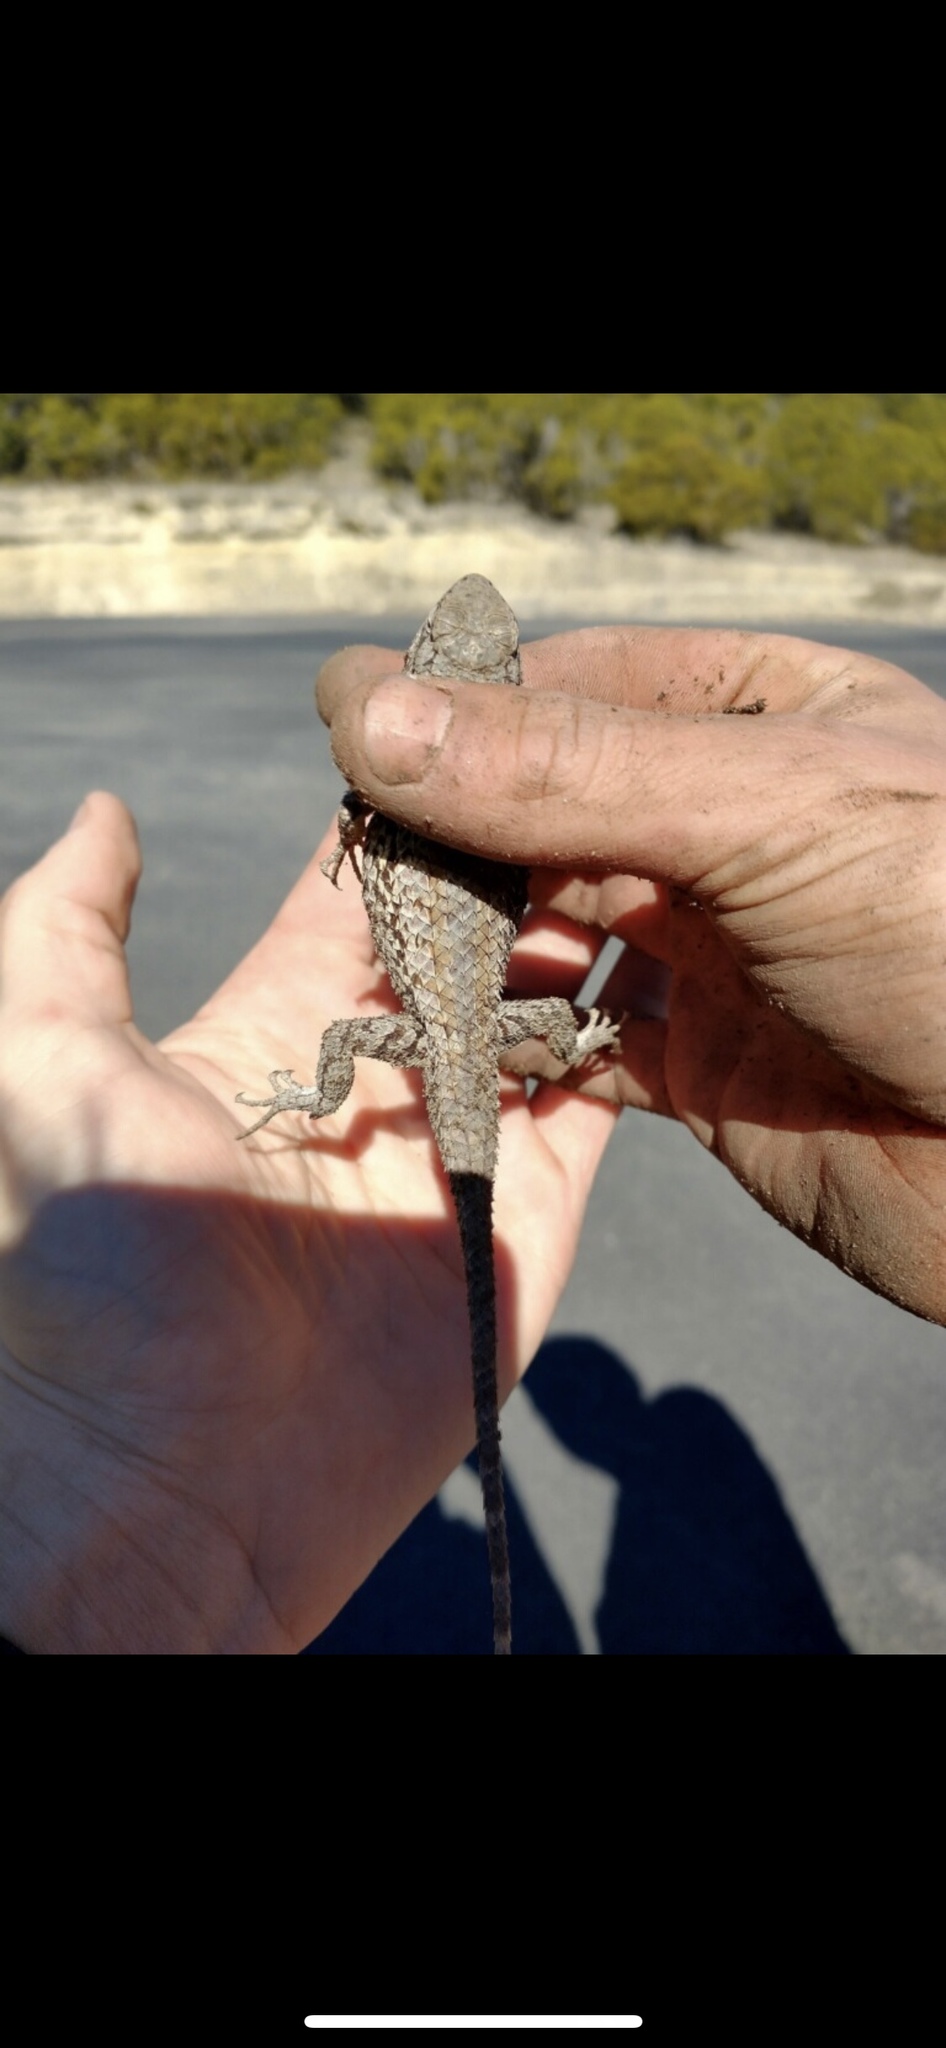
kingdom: Animalia
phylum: Chordata
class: Squamata
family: Phrynosomatidae
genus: Sceloporus
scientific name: Sceloporus olivaceus
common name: Texas spiny lizard
